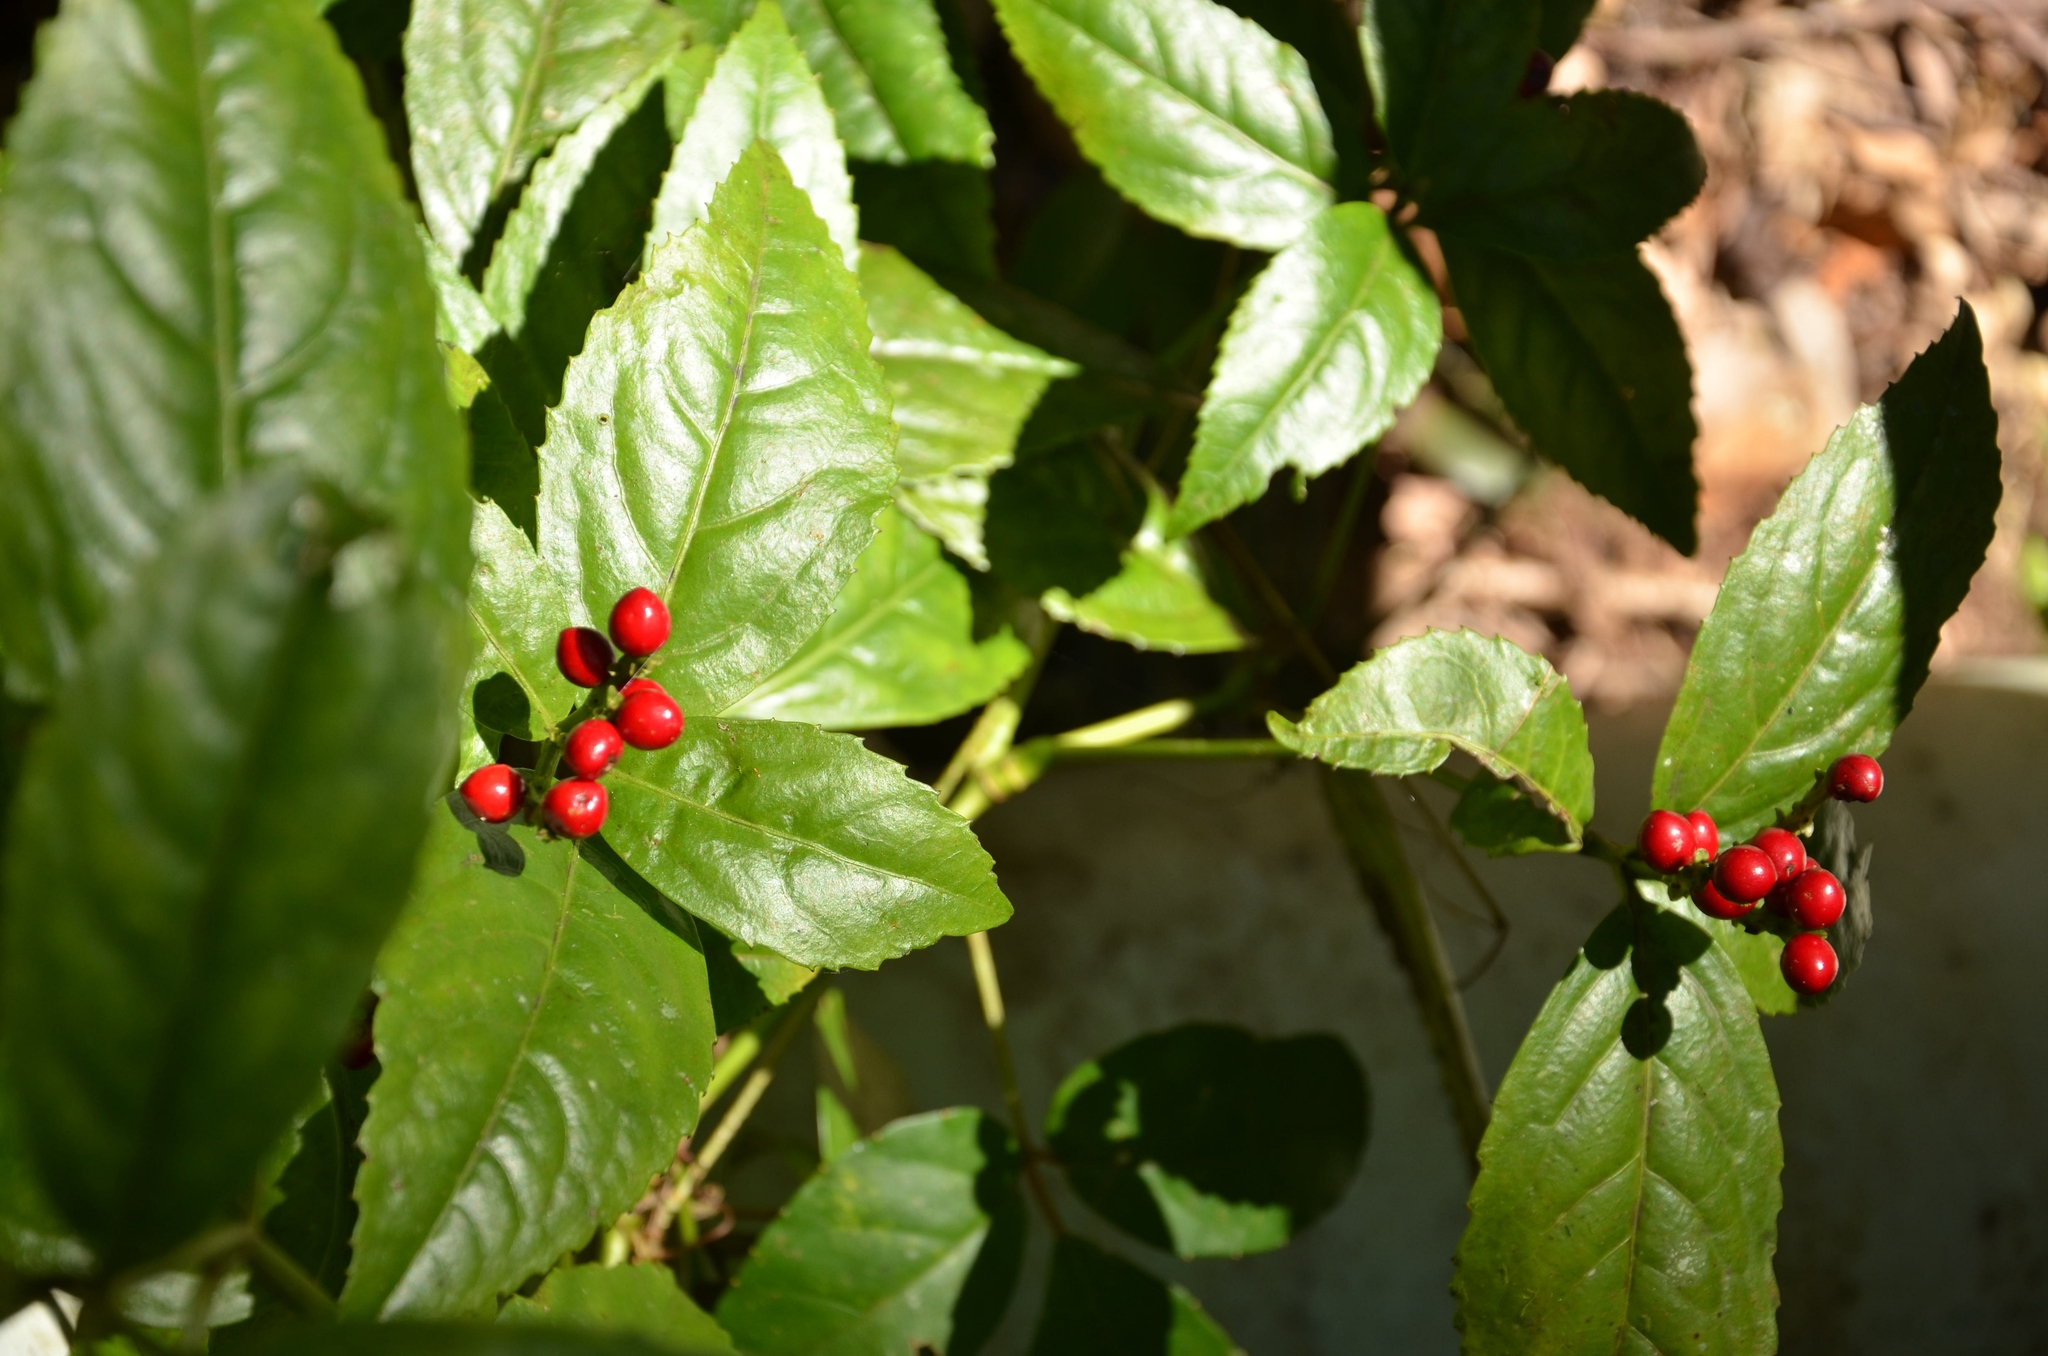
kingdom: Plantae
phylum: Tracheophyta
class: Magnoliopsida
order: Chloranthales
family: Chloranthaceae
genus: Sarcandra
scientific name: Sarcandra glabra
